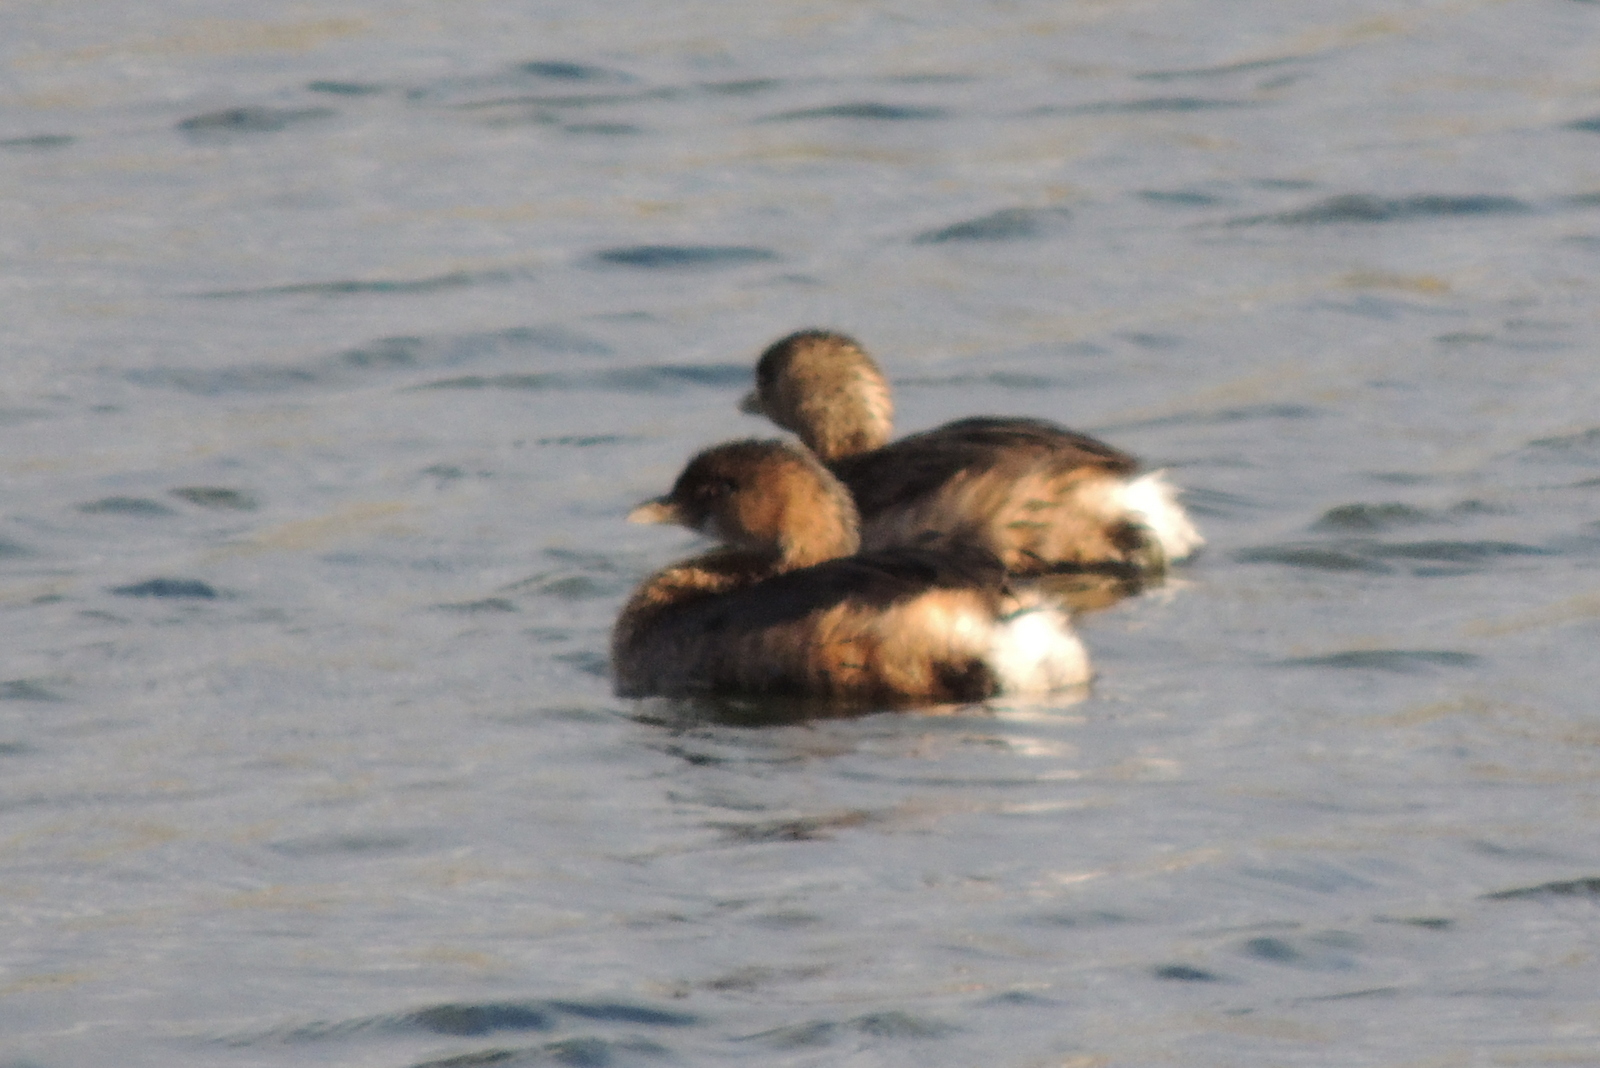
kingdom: Animalia
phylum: Chordata
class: Aves
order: Podicipediformes
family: Podicipedidae
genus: Podilymbus
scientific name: Podilymbus podiceps
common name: Pied-billed grebe
